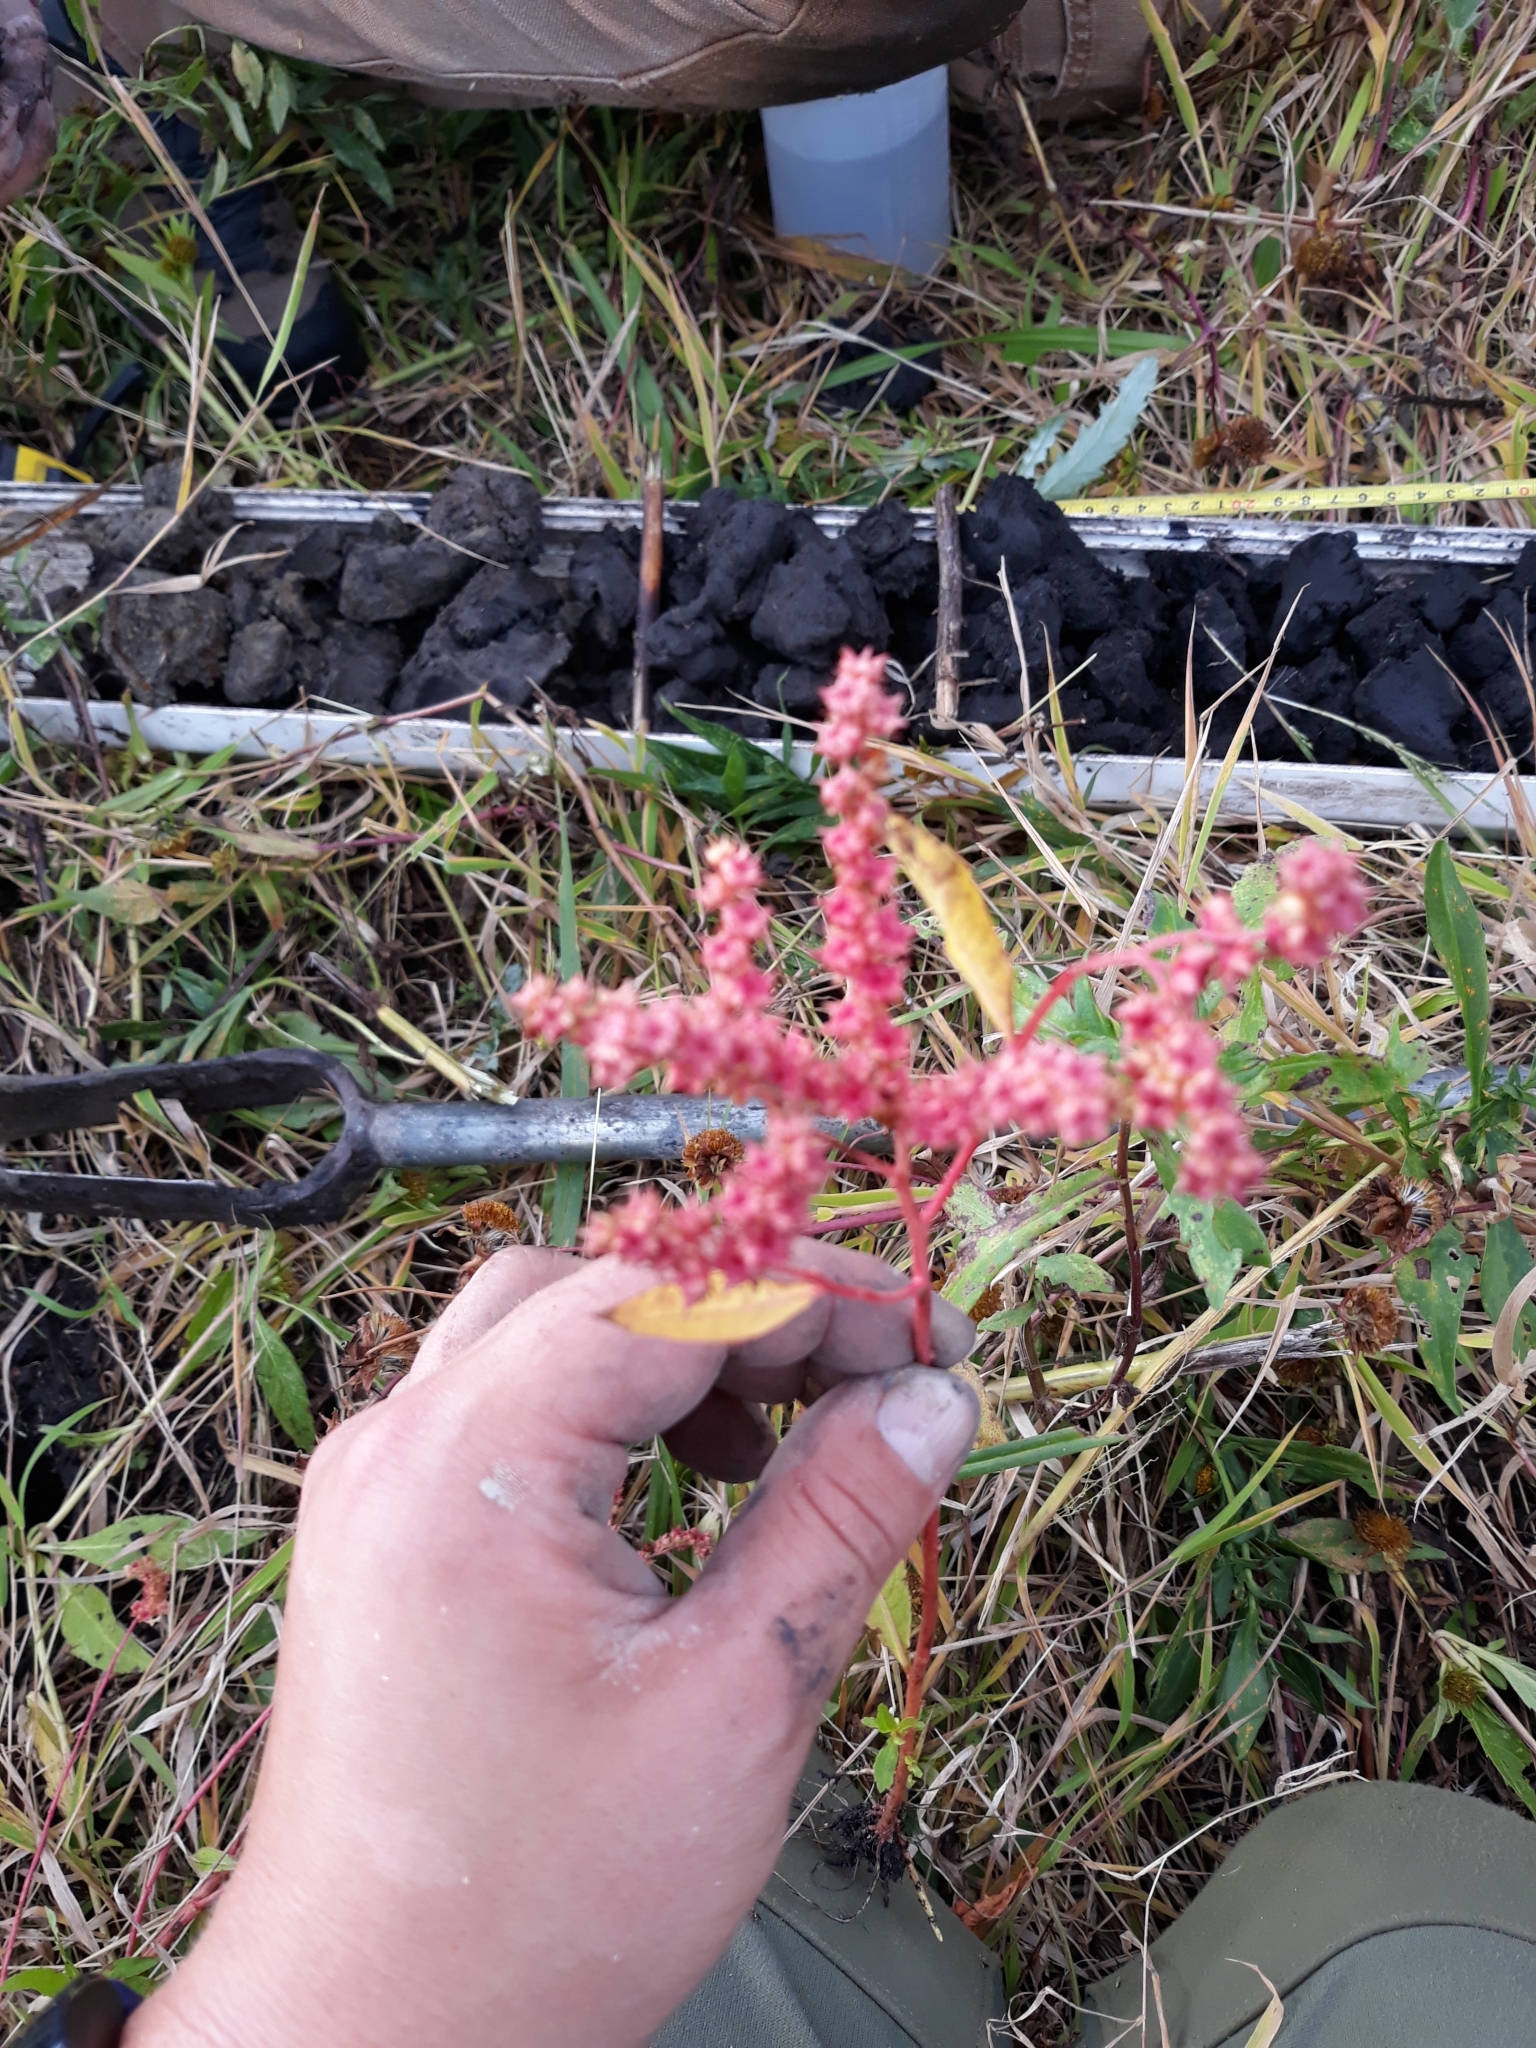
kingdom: Plantae
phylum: Tracheophyta
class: Magnoliopsida
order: Saxifragales
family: Penthoraceae
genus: Penthorum
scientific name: Penthorum sedoides
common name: Ditch stonecrop
